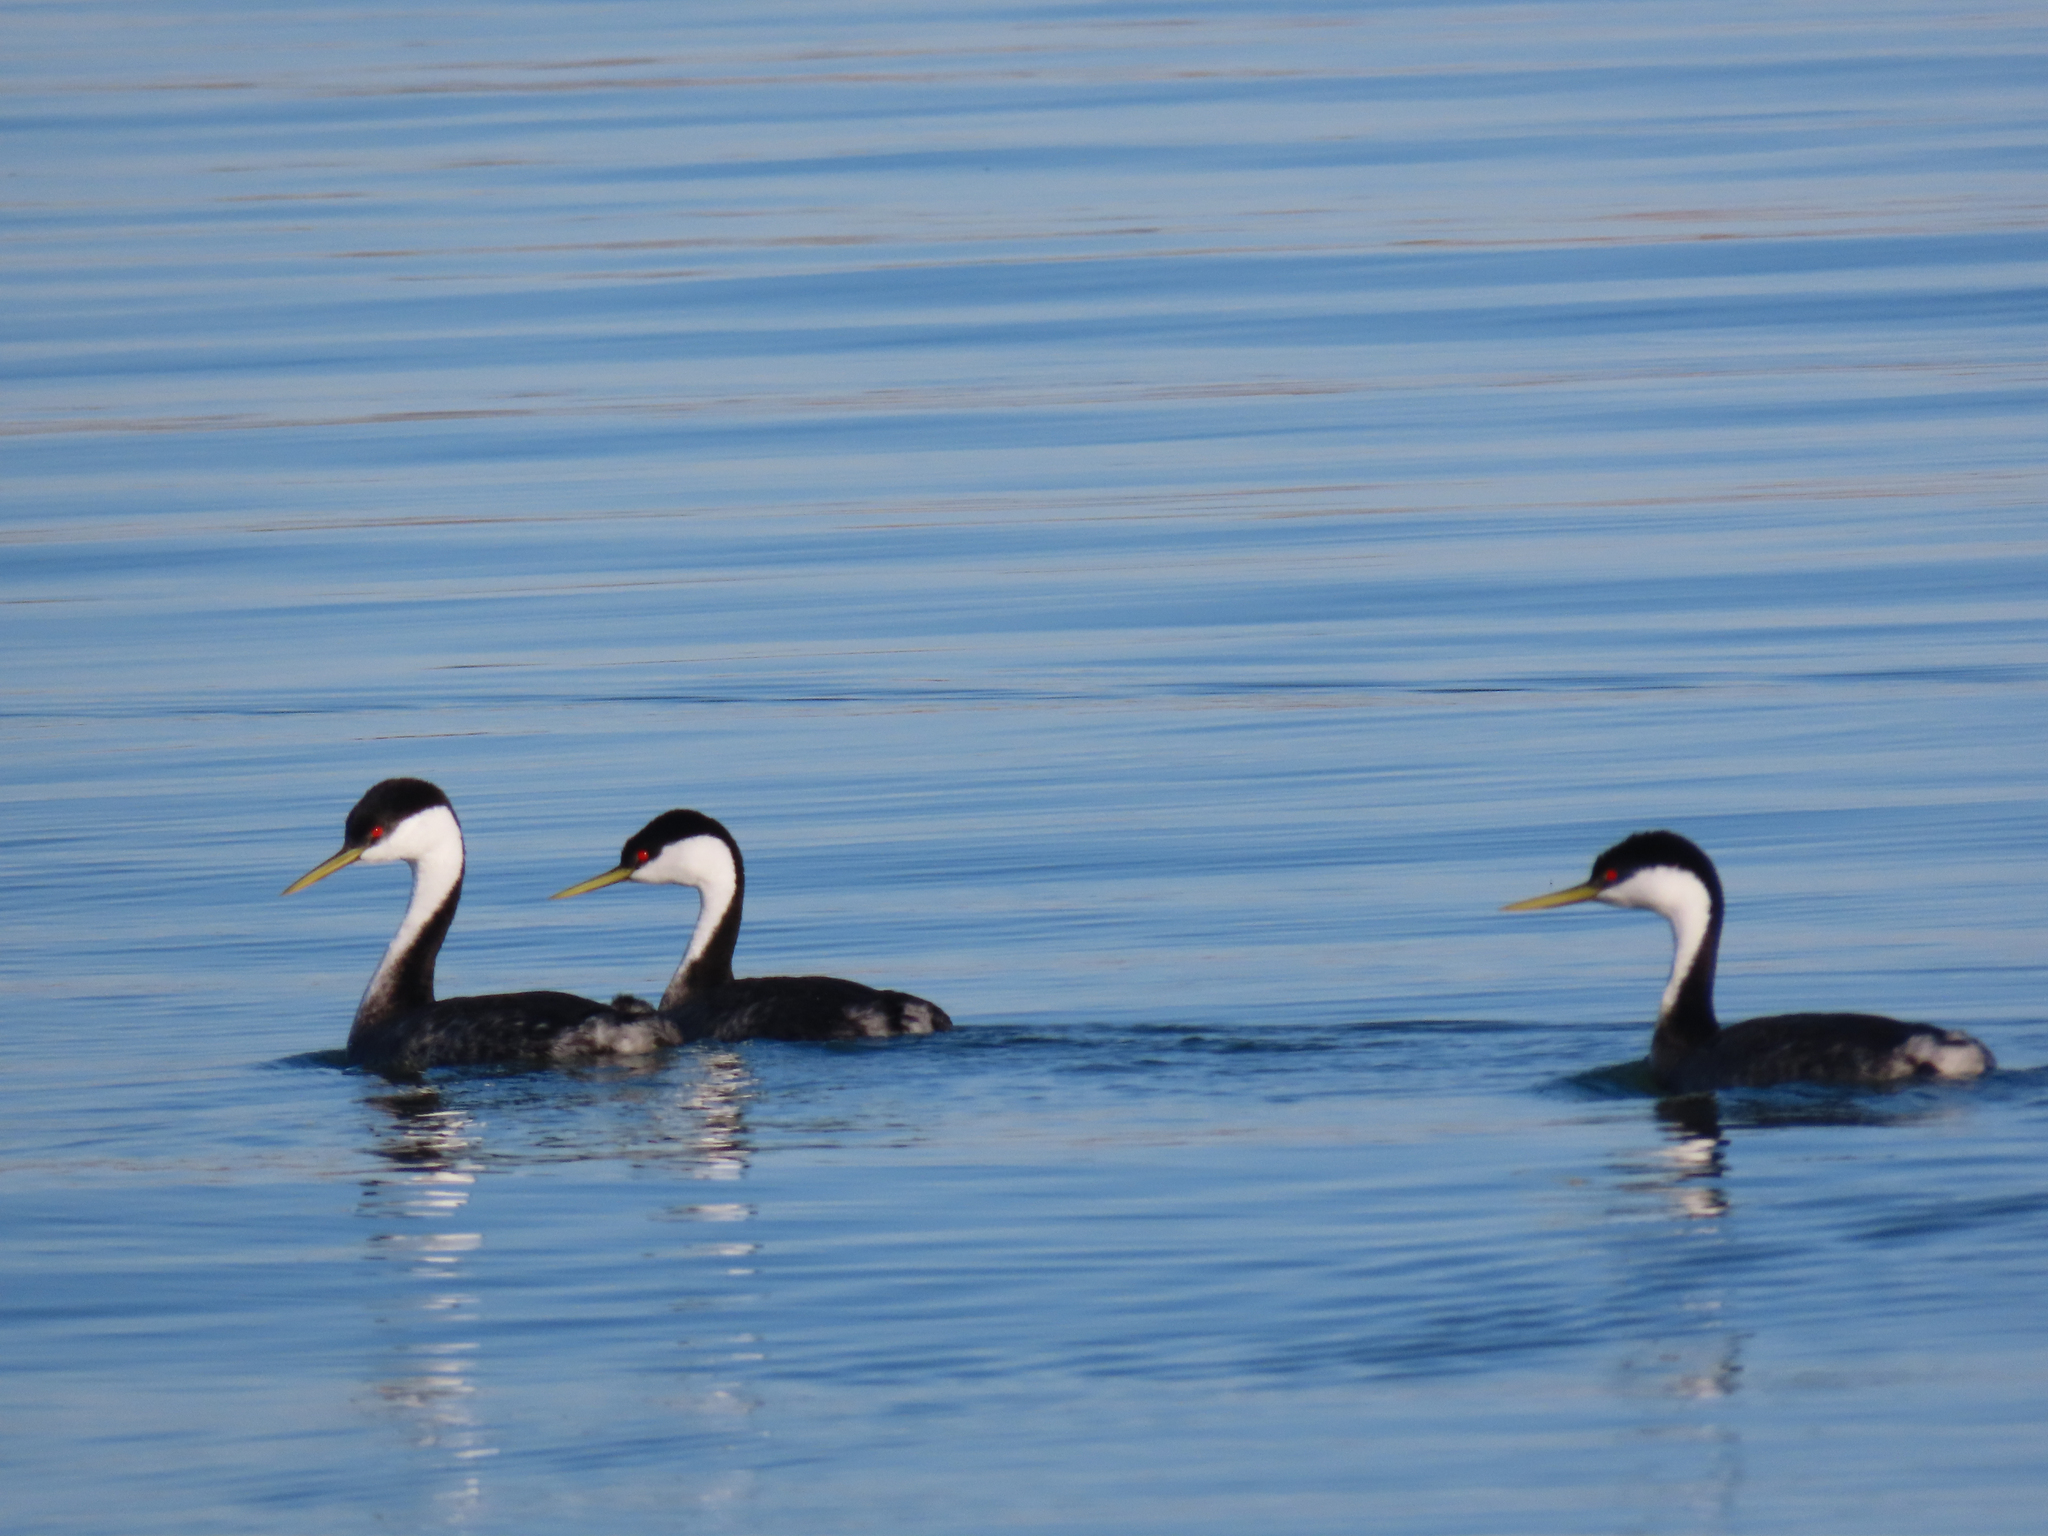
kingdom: Animalia
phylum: Chordata
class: Aves
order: Podicipediformes
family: Podicipedidae
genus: Aechmophorus
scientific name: Aechmophorus occidentalis
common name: Western grebe
